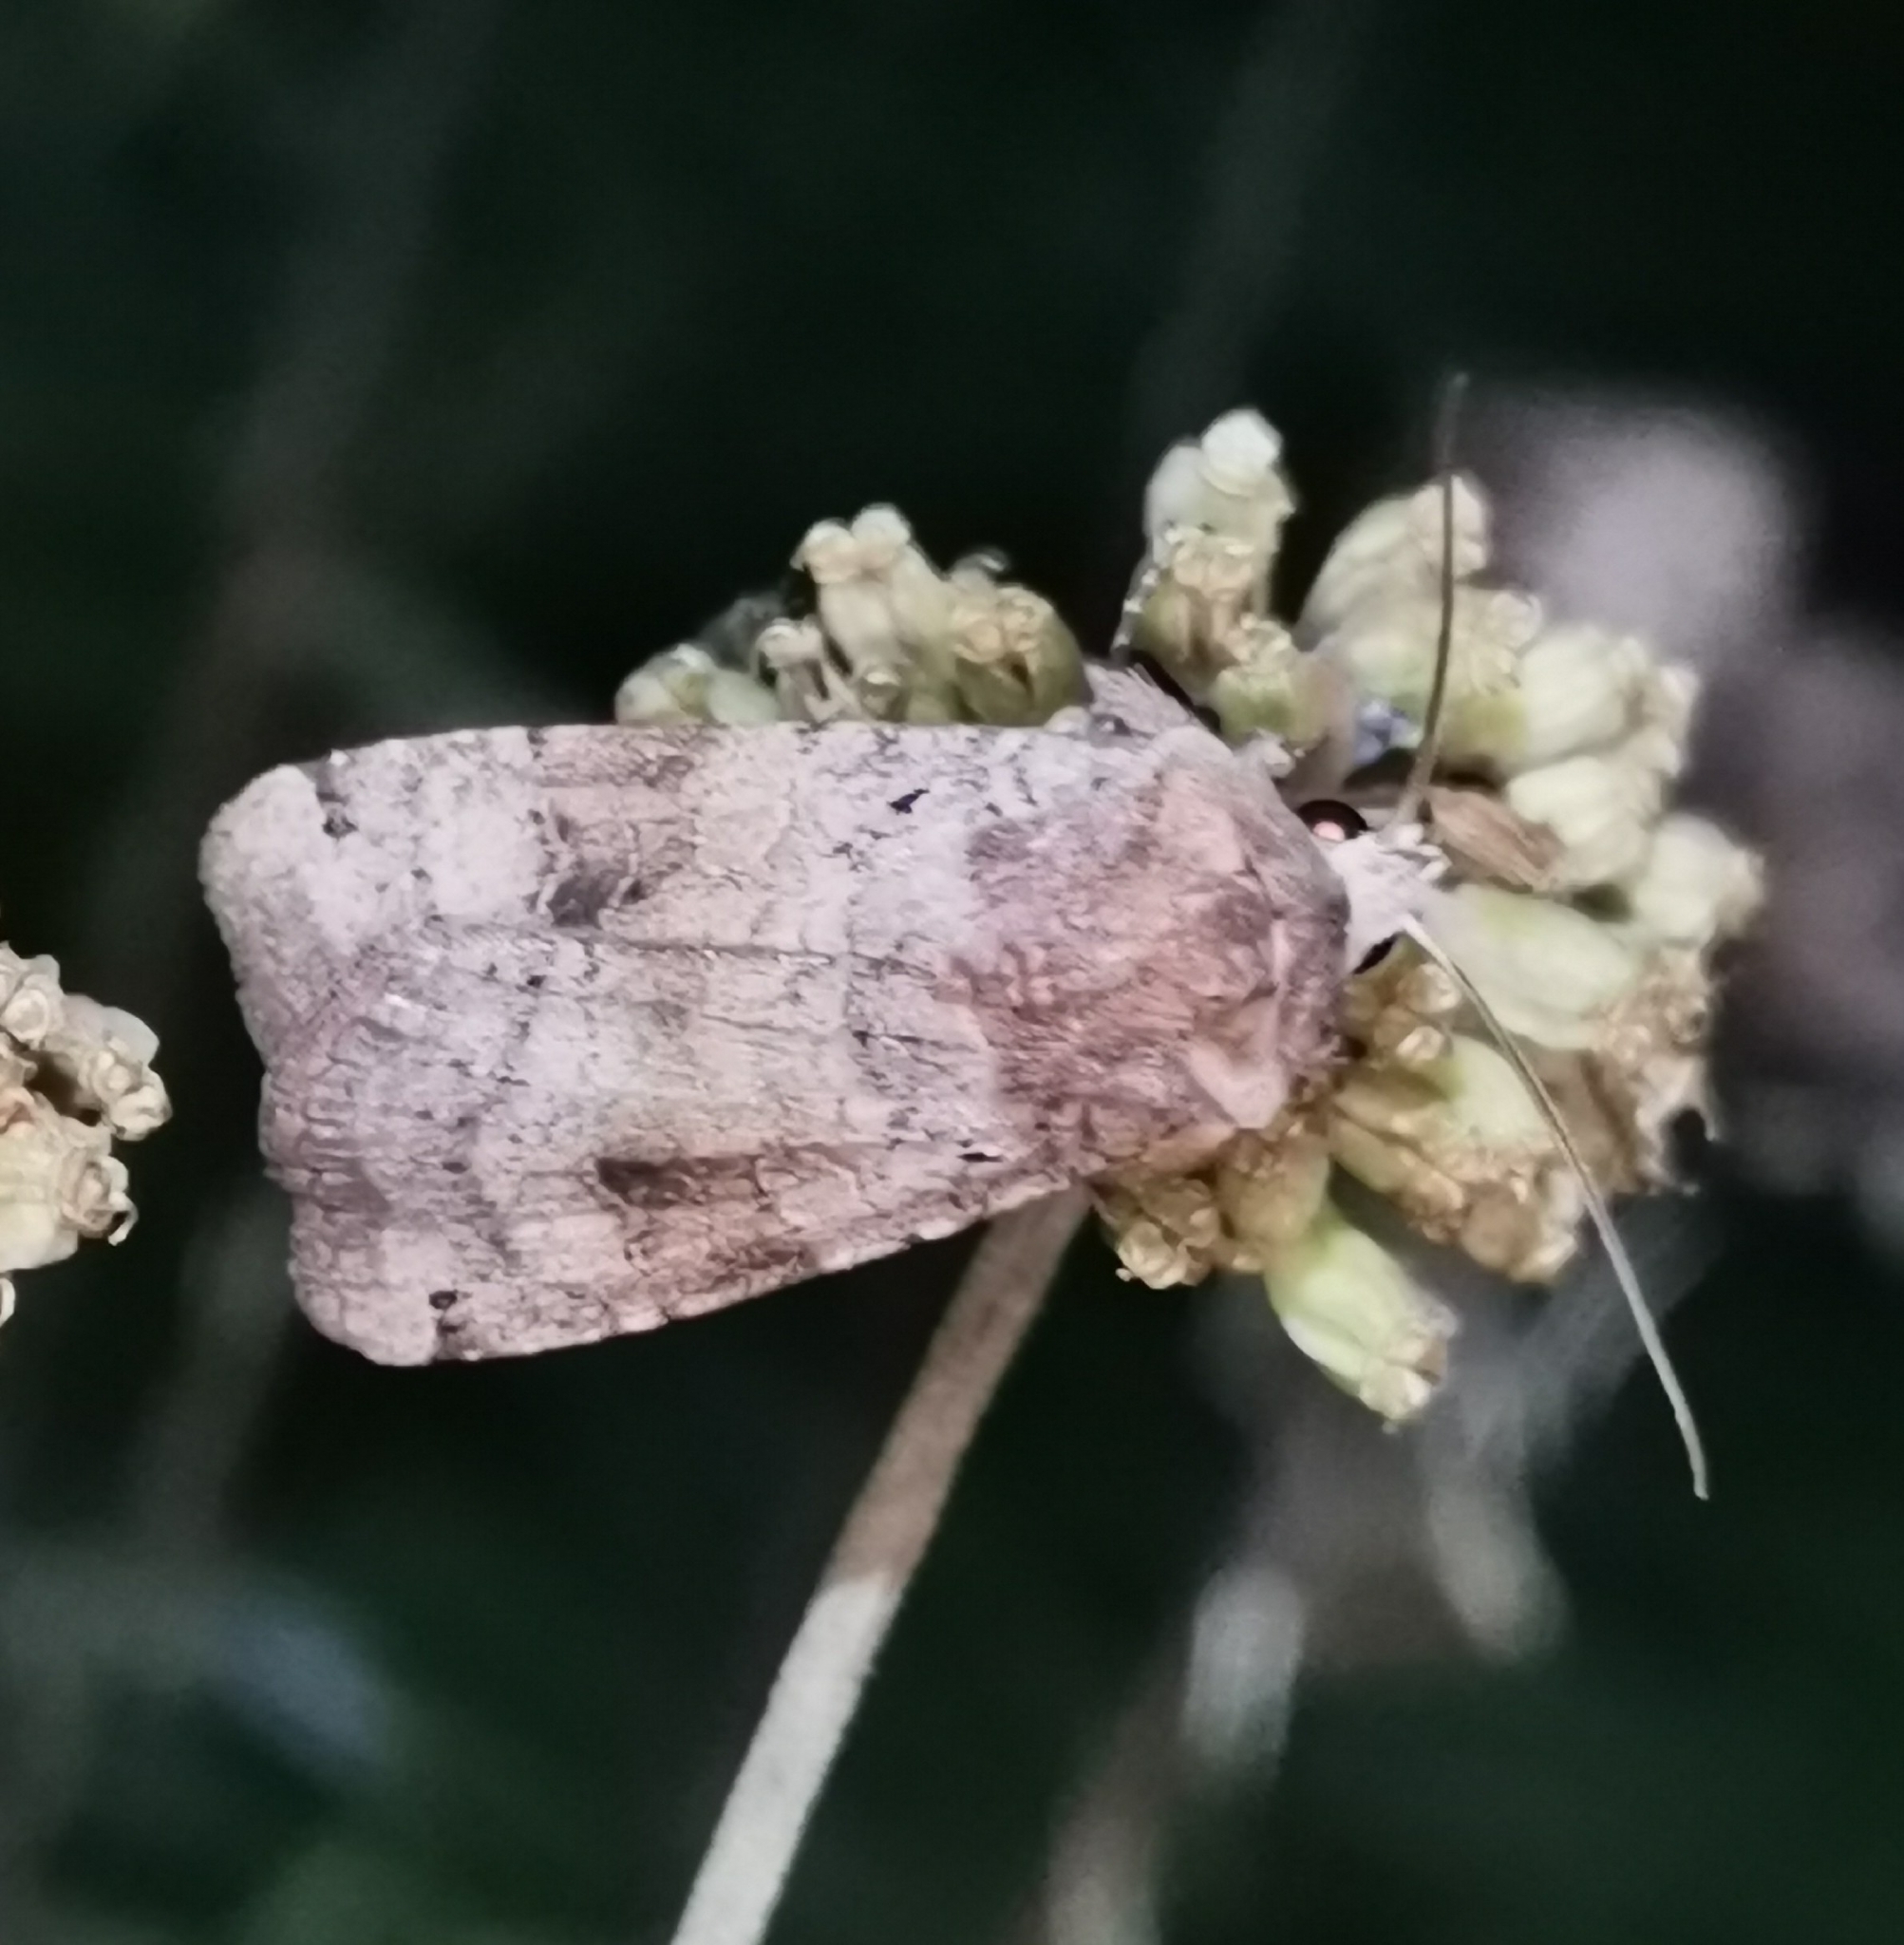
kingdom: Animalia
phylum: Arthropoda
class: Insecta
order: Lepidoptera
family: Noctuidae
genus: Xestia
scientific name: Xestia baja
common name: Dotted clay
